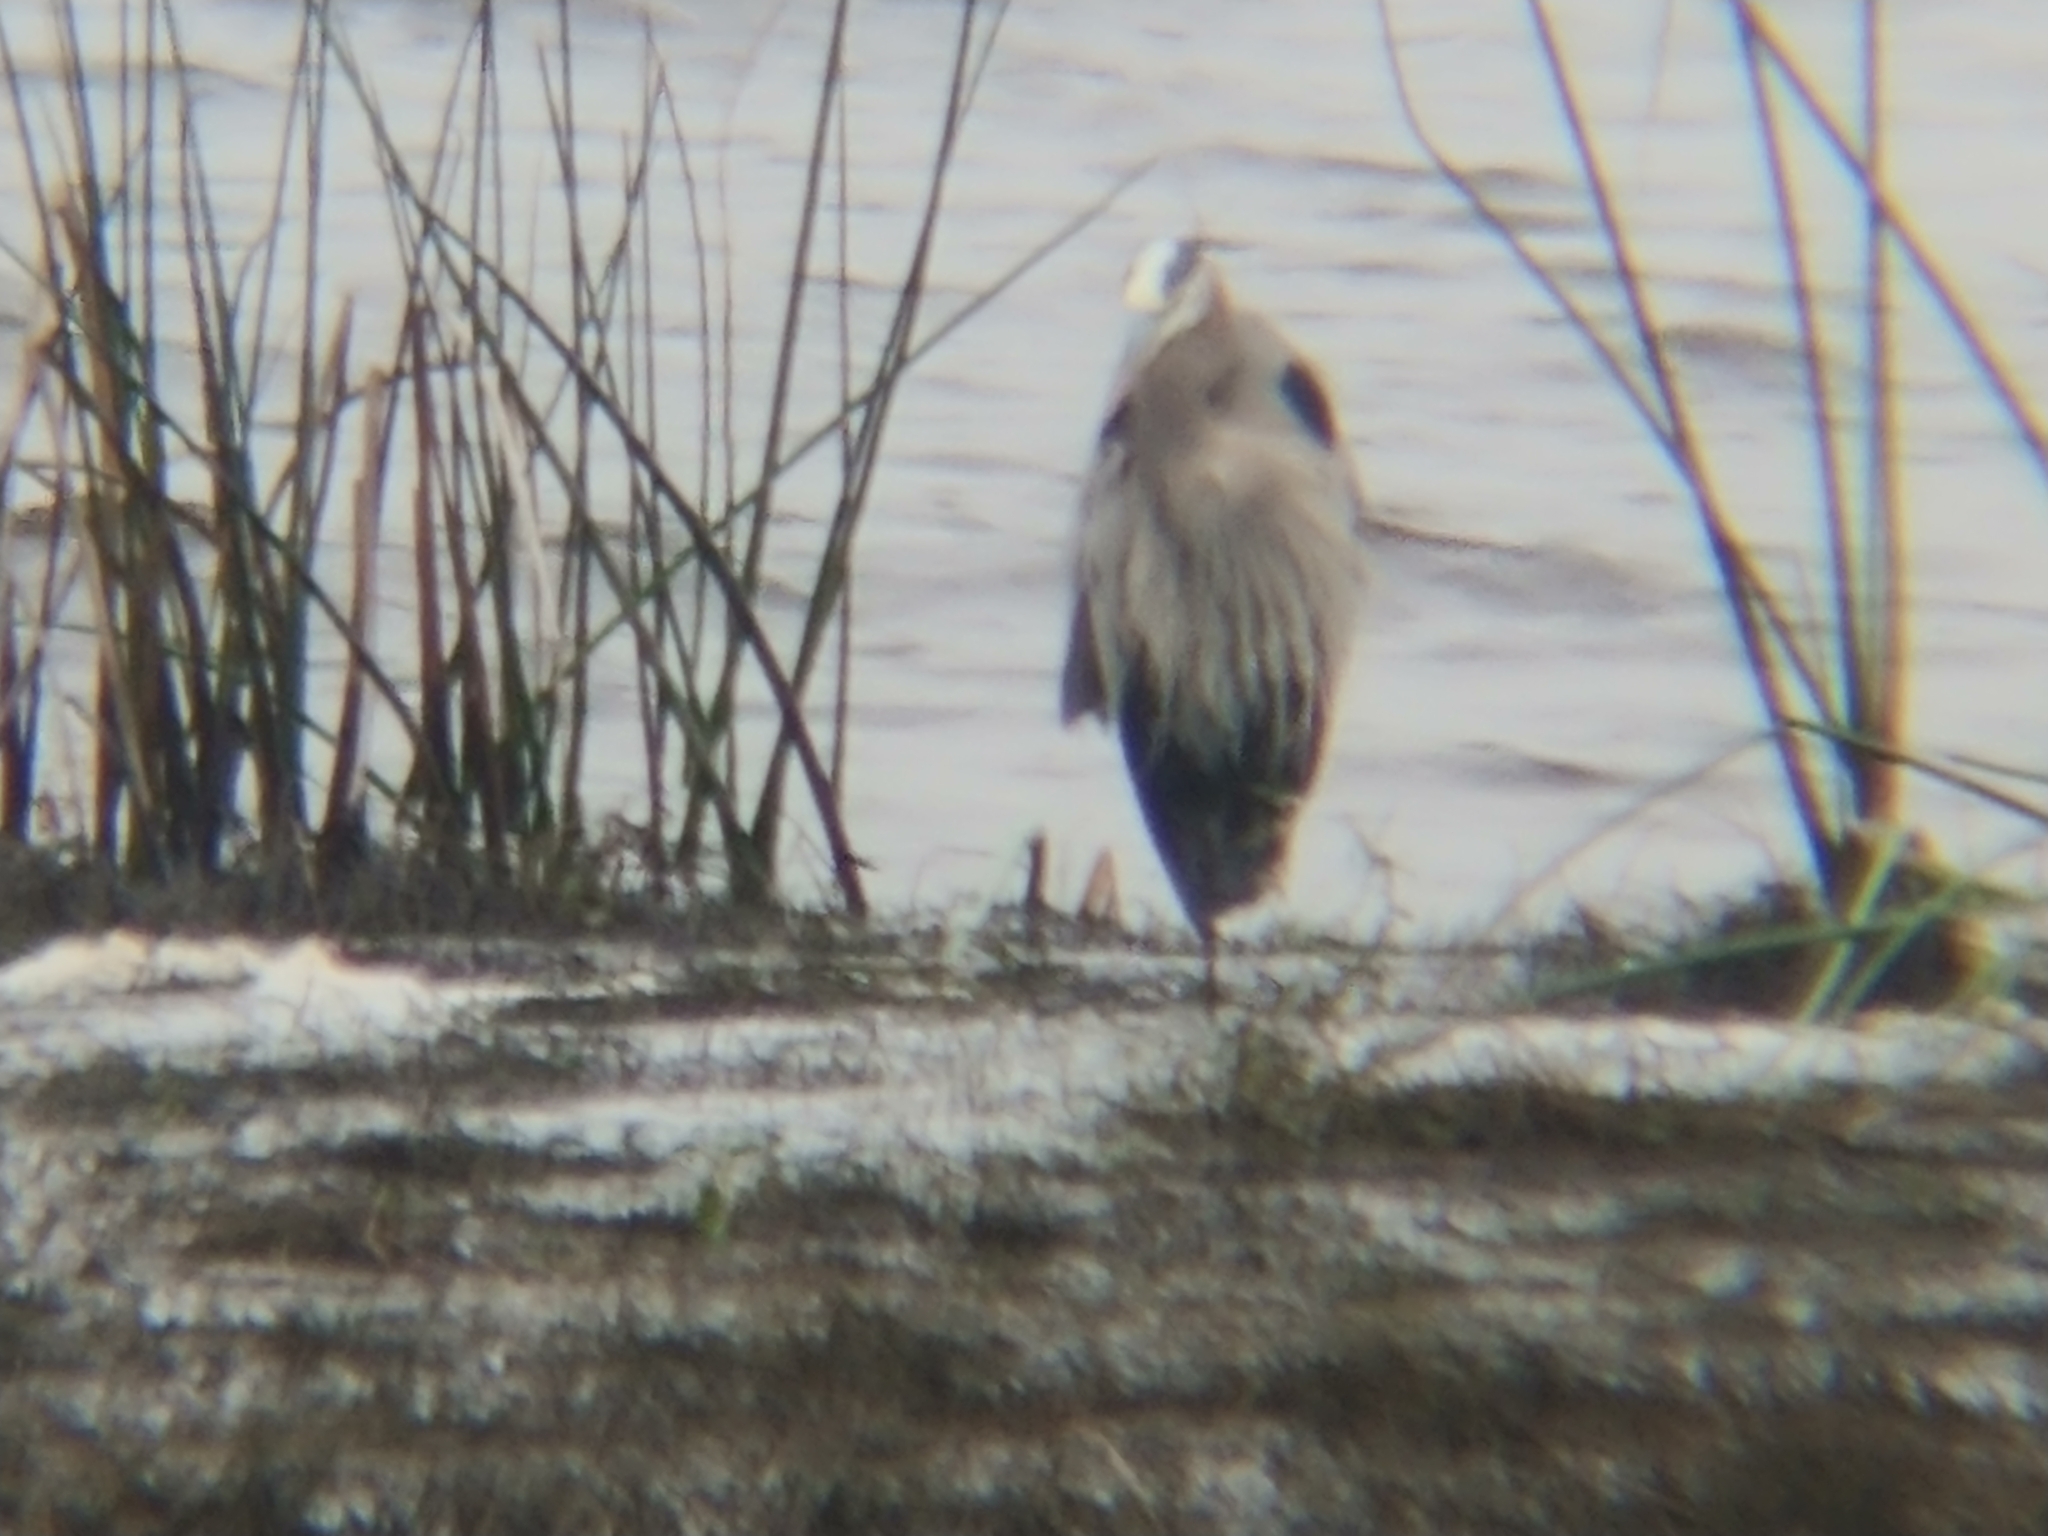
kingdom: Animalia
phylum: Chordata
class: Aves
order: Pelecaniformes
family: Ardeidae
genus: Ardea
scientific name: Ardea herodias
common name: Great blue heron
